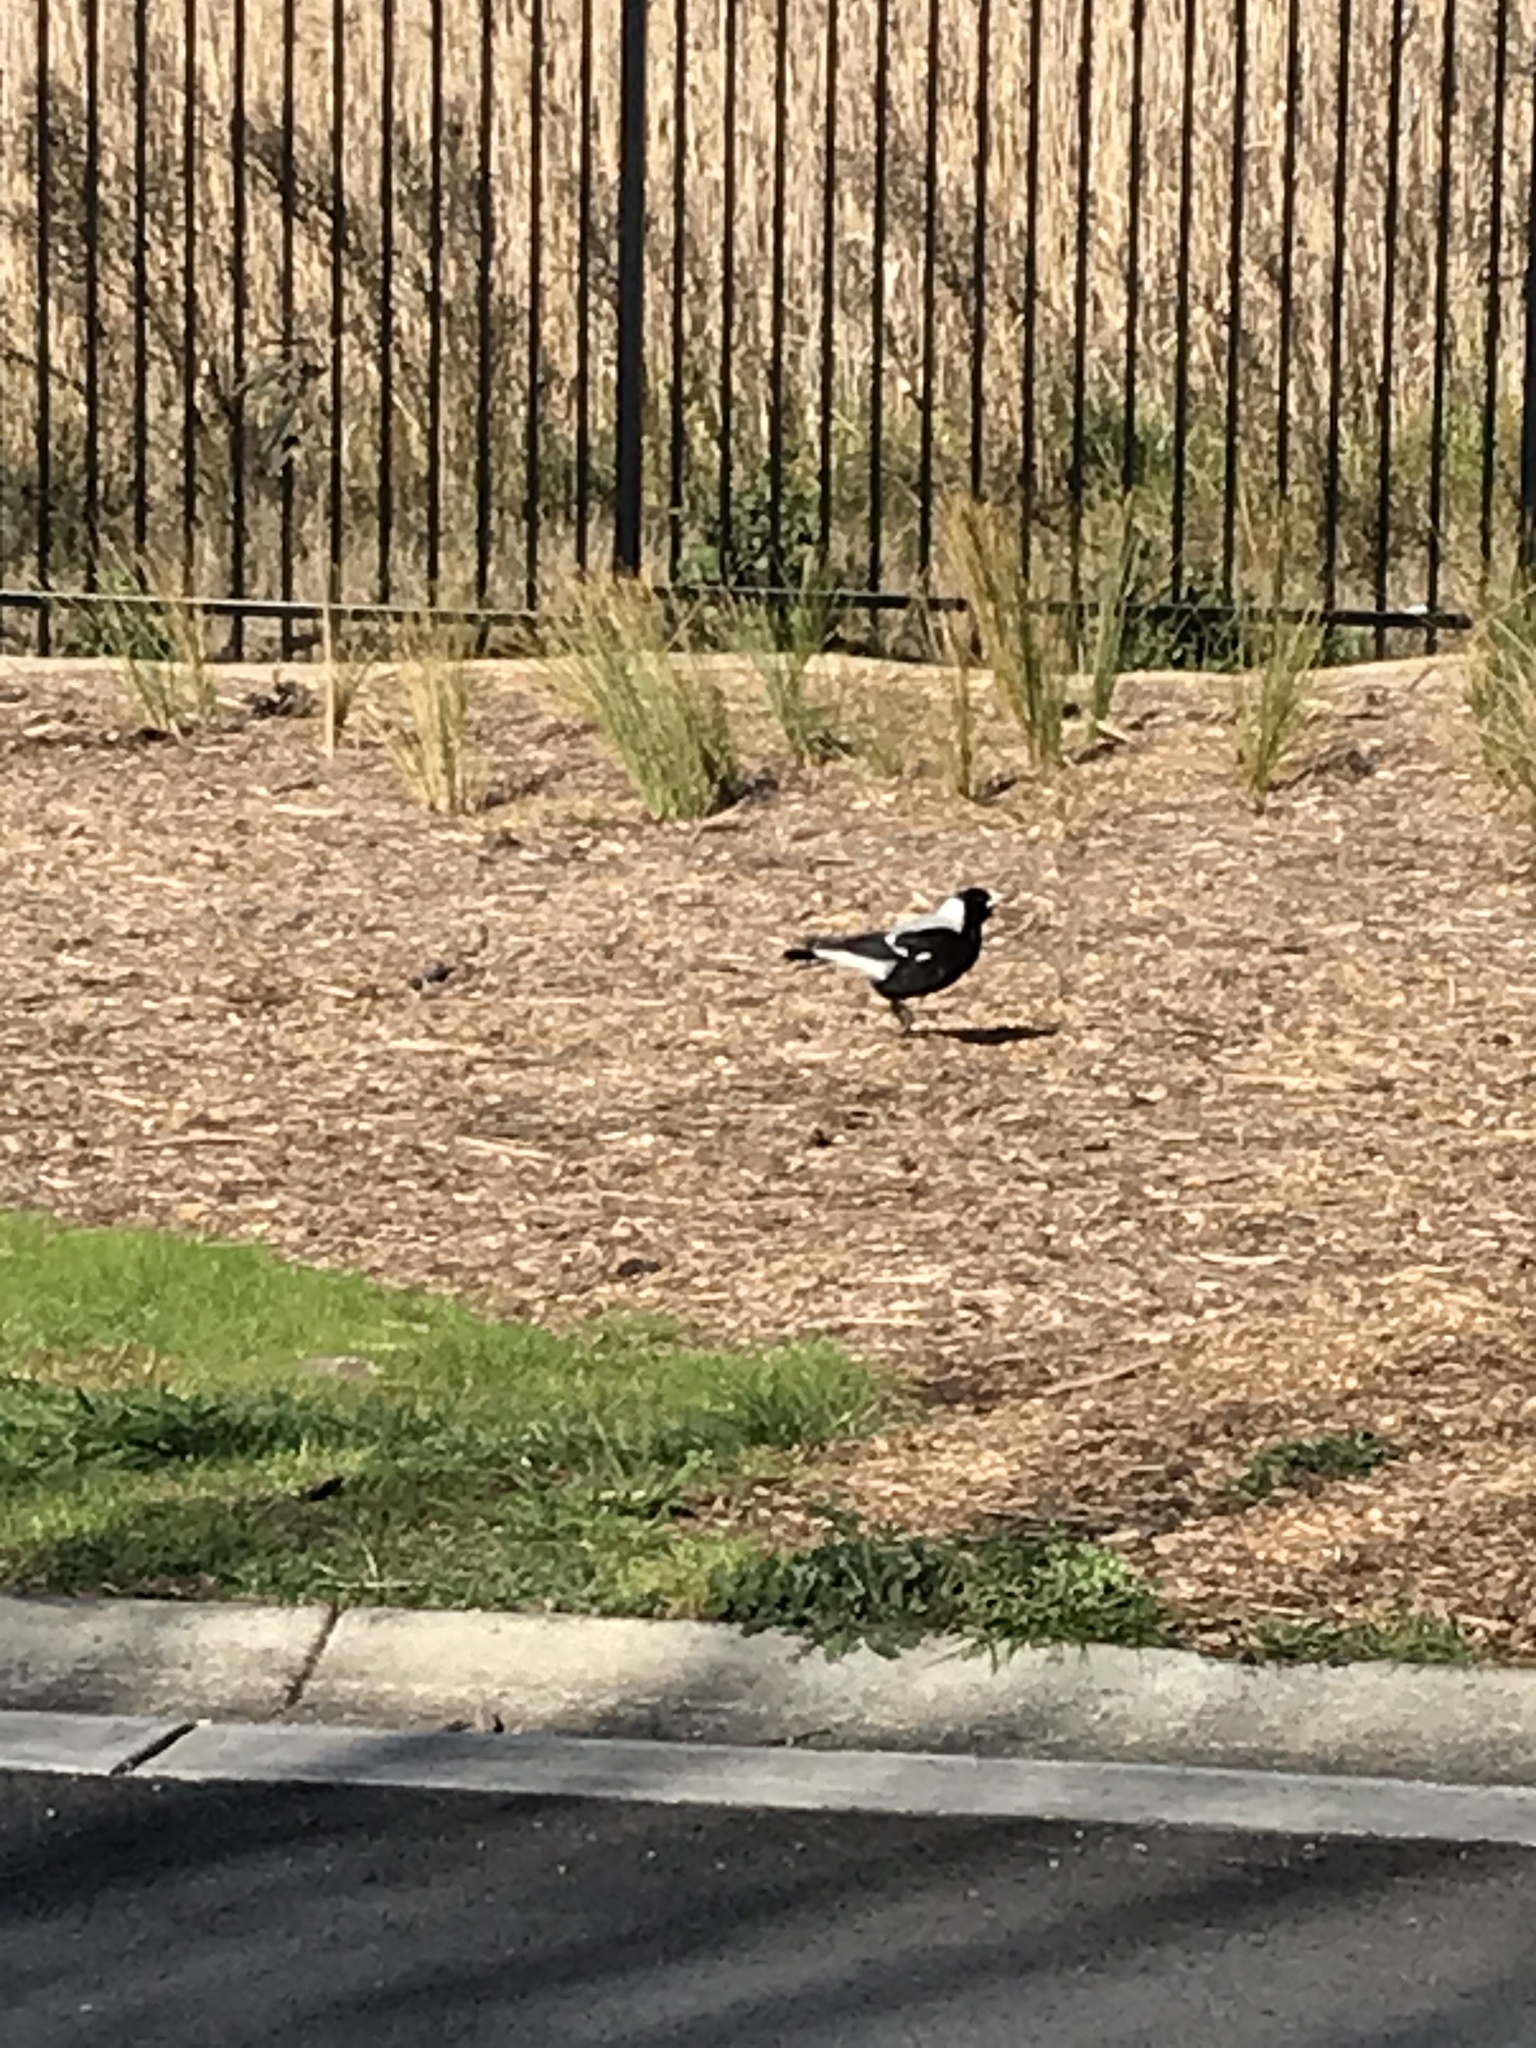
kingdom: Animalia
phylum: Chordata
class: Aves
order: Passeriformes
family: Cracticidae
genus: Gymnorhina
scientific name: Gymnorhina tibicen
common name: Australian magpie
